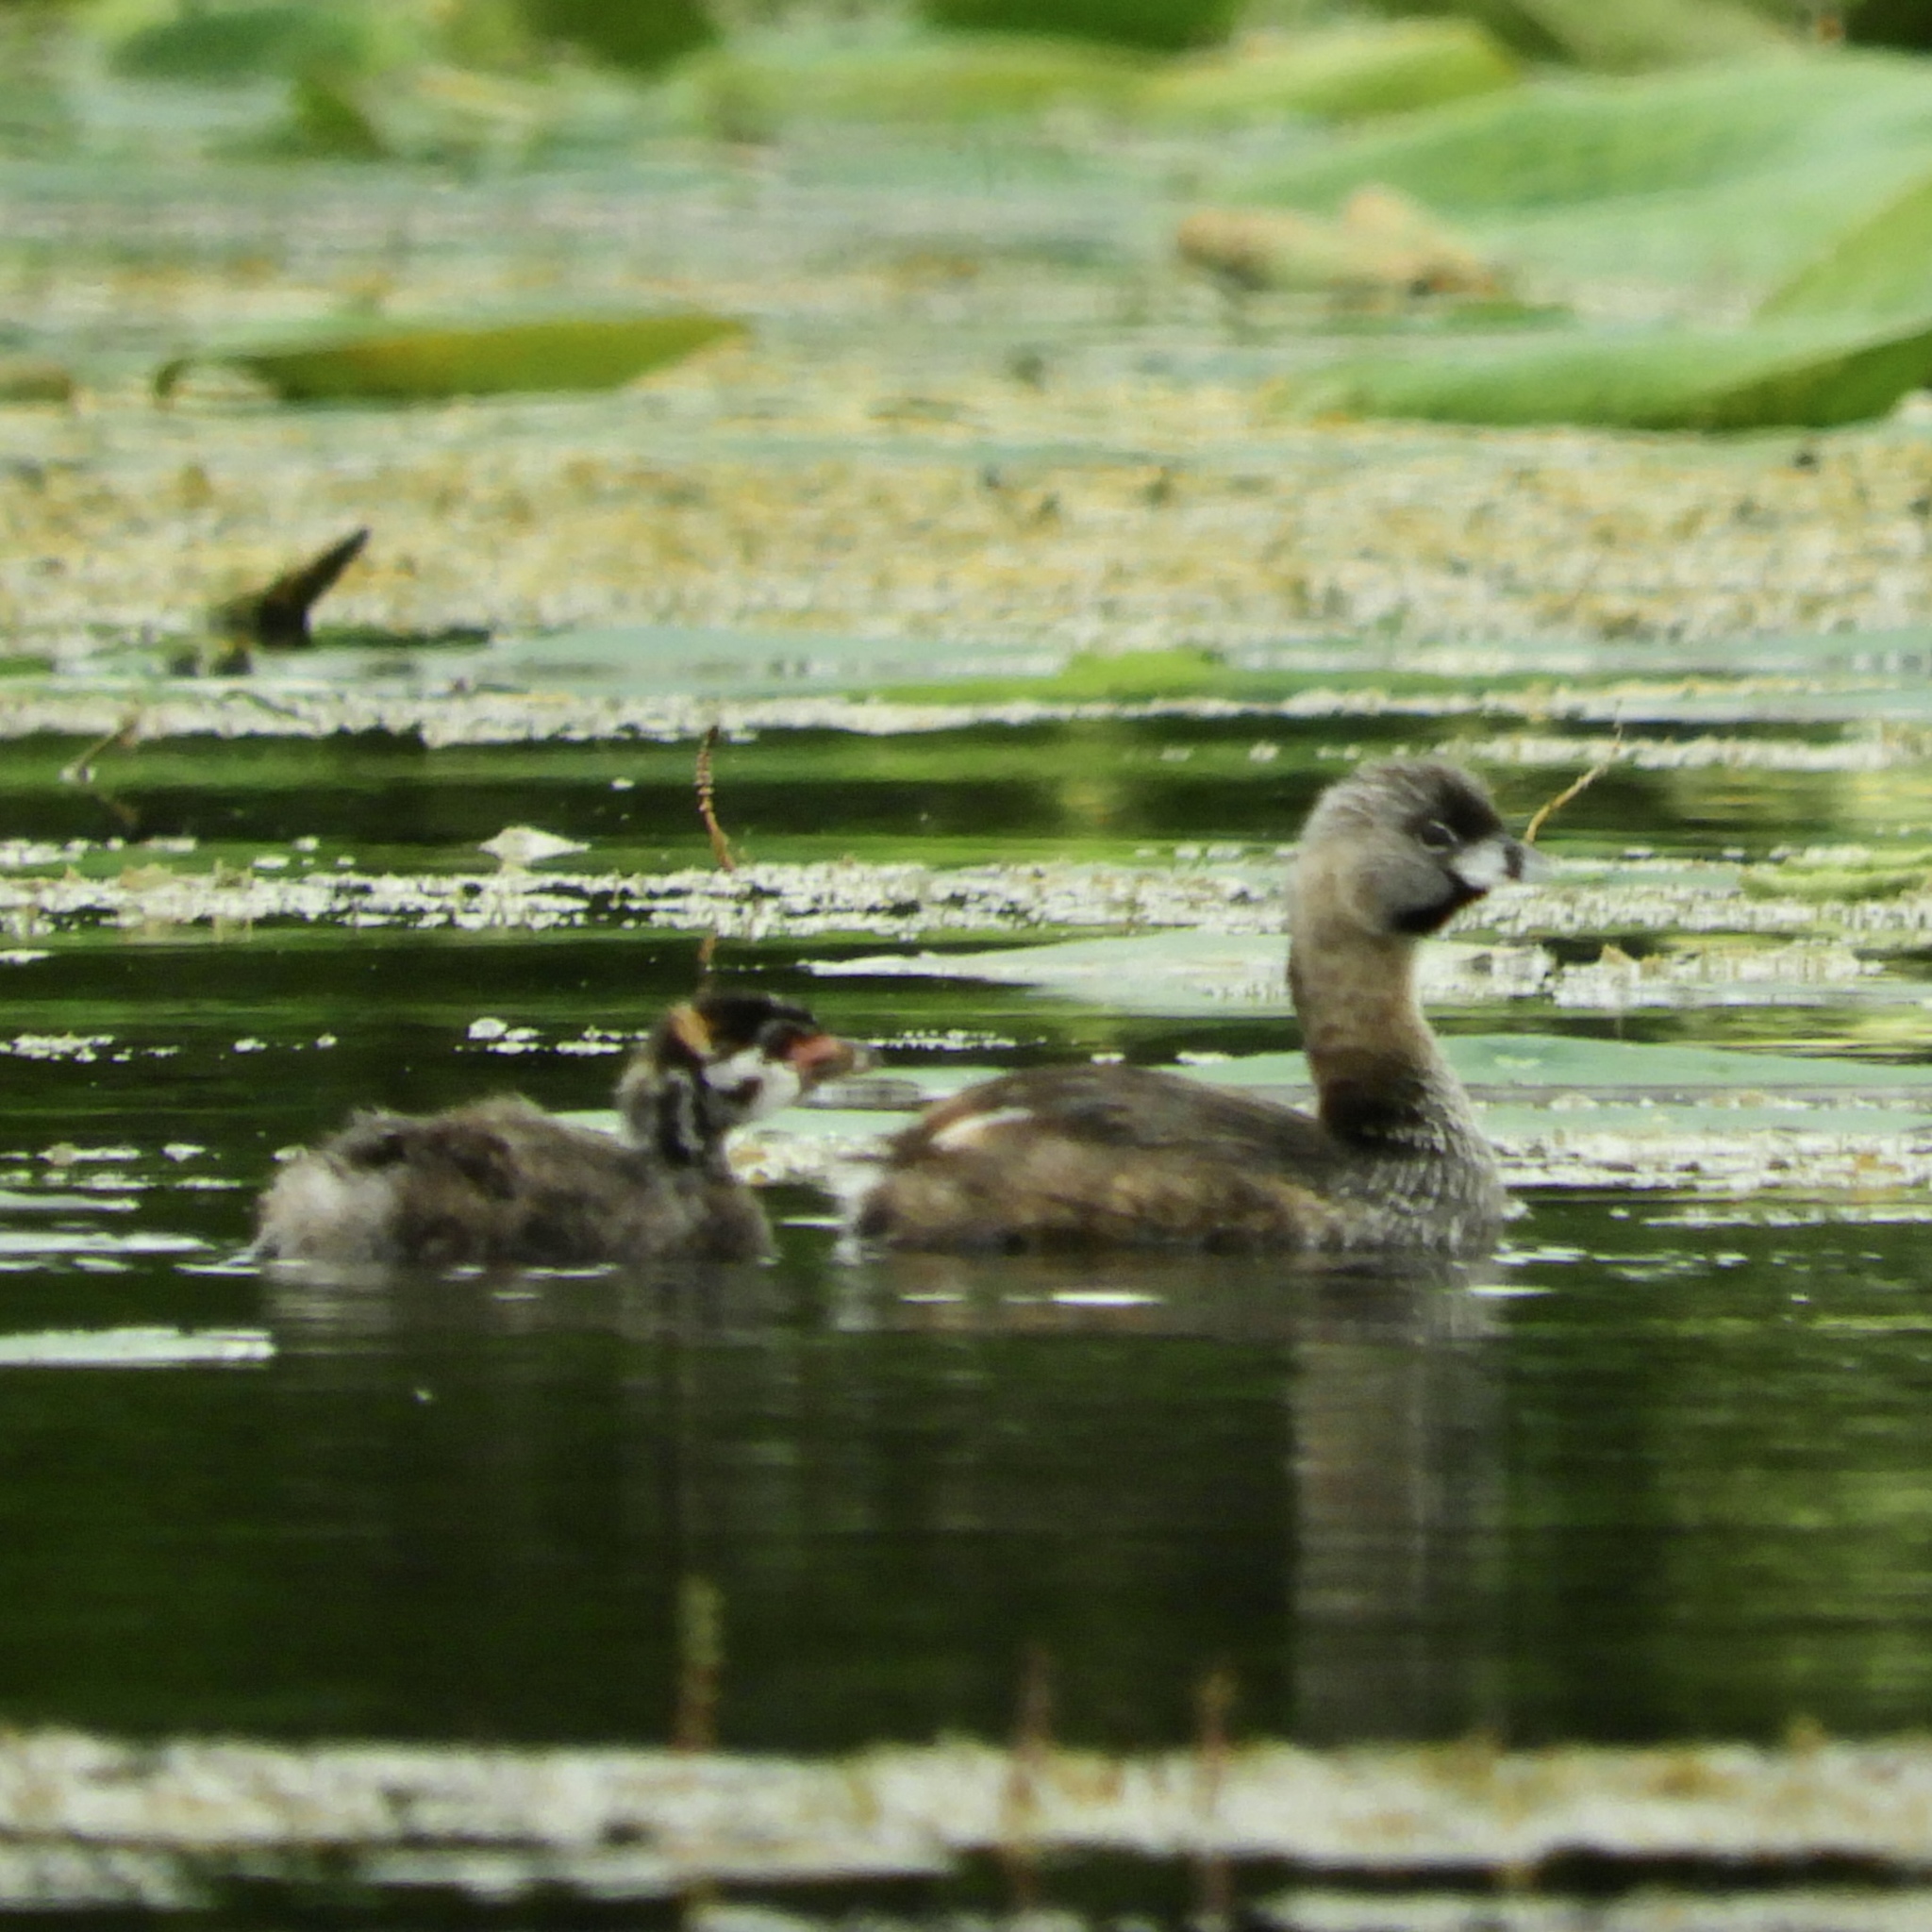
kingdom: Animalia
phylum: Chordata
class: Aves
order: Podicipediformes
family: Podicipedidae
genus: Podilymbus
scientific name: Podilymbus podiceps
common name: Pied-billed grebe
